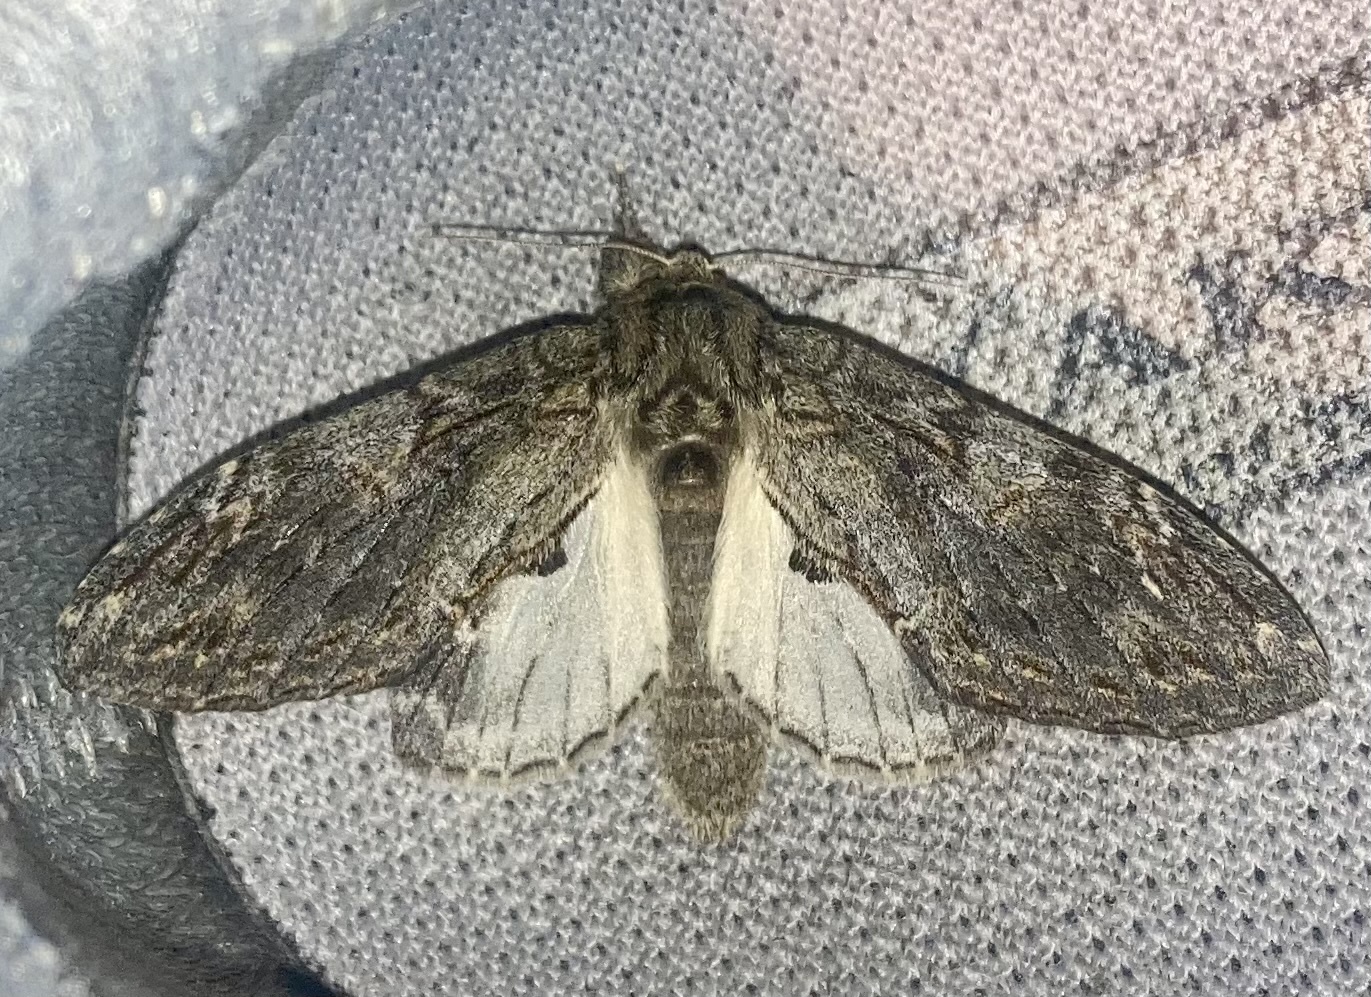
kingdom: Animalia
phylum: Arthropoda
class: Insecta
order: Lepidoptera
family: Notodontidae
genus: Peridea
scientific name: Peridea anceps
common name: Great prominent
